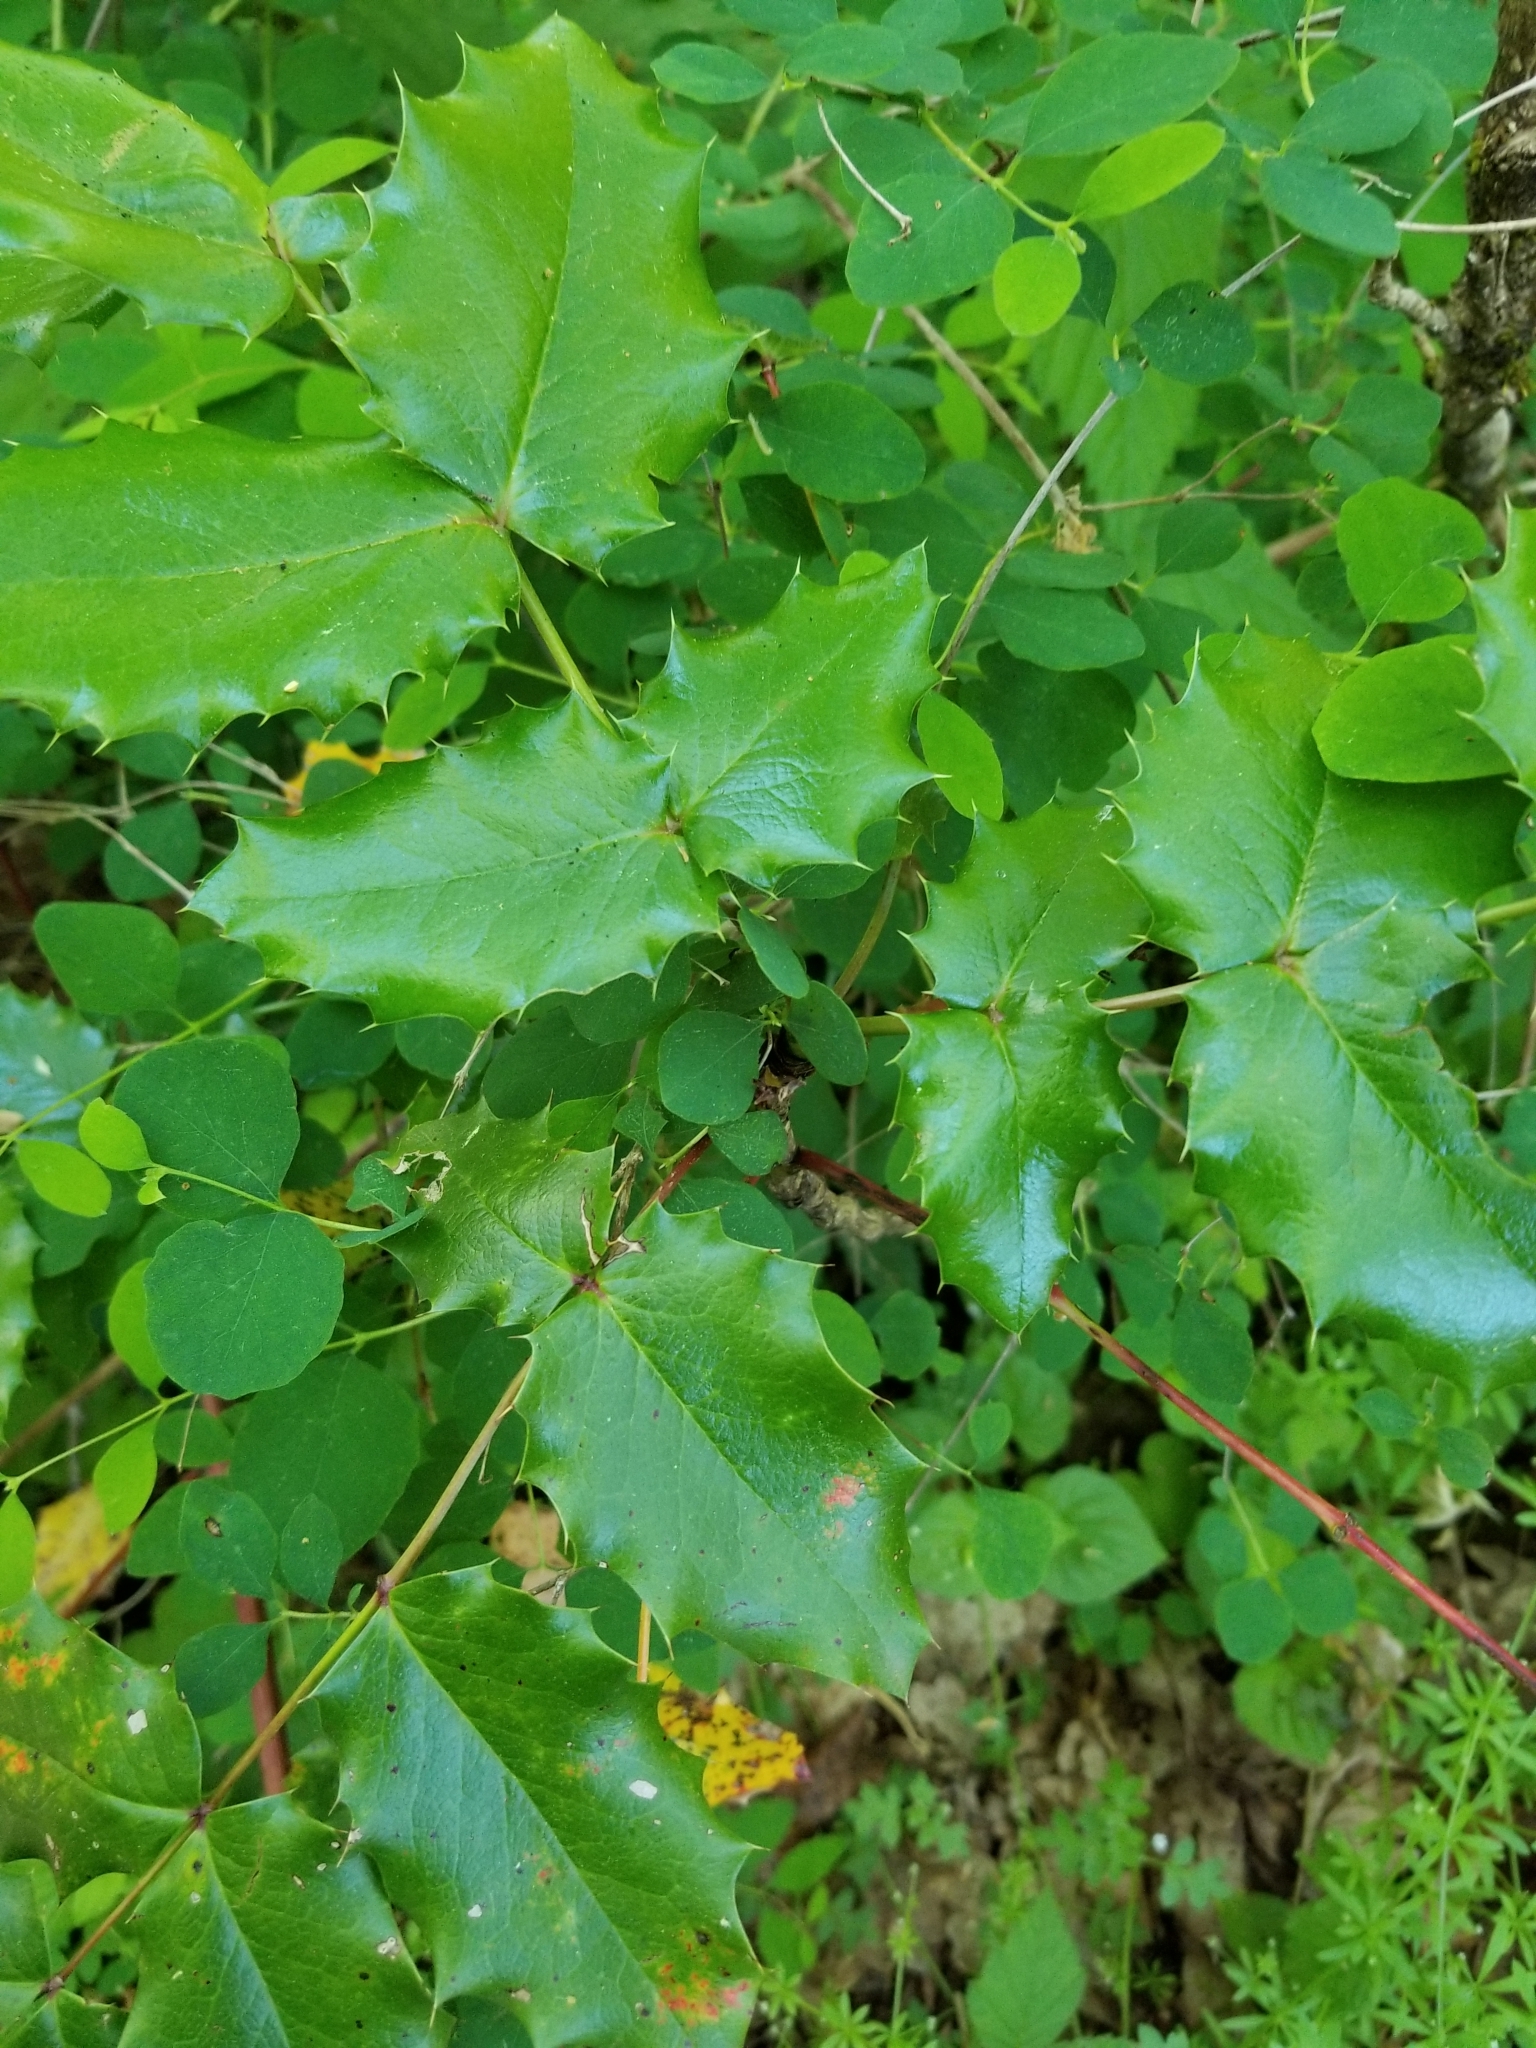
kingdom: Plantae
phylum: Tracheophyta
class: Magnoliopsida
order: Ranunculales
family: Berberidaceae
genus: Mahonia
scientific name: Mahonia aquifolium
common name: Oregon-grape
